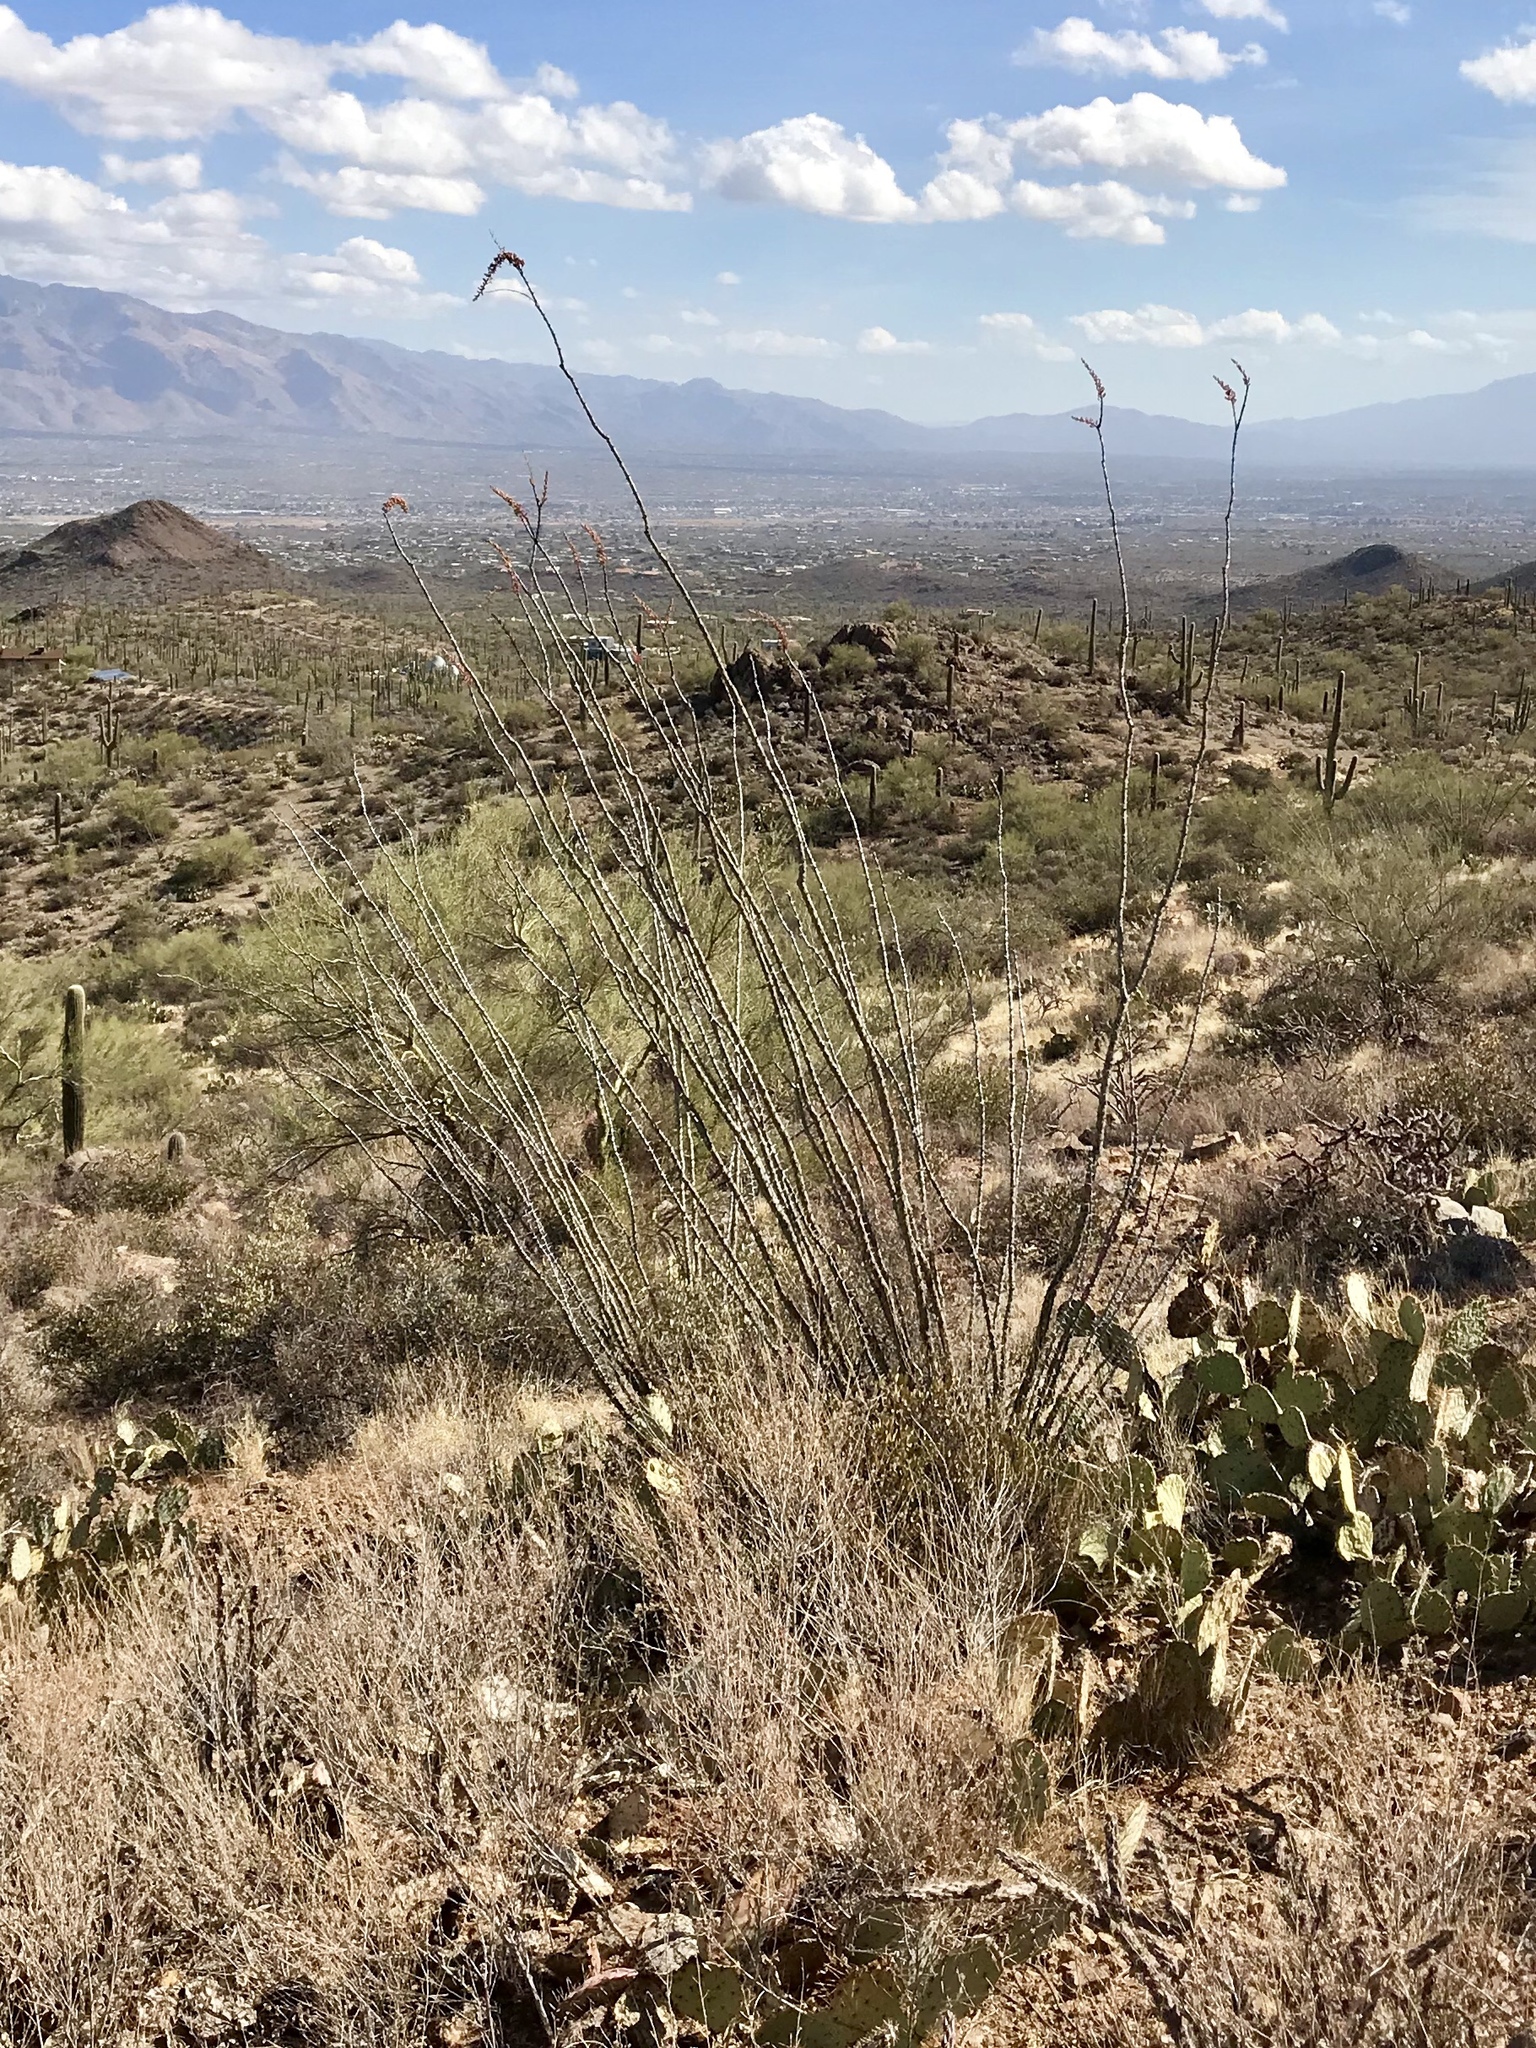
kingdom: Plantae
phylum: Tracheophyta
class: Magnoliopsida
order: Ericales
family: Fouquieriaceae
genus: Fouquieria
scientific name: Fouquieria splendens
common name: Vine-cactus
